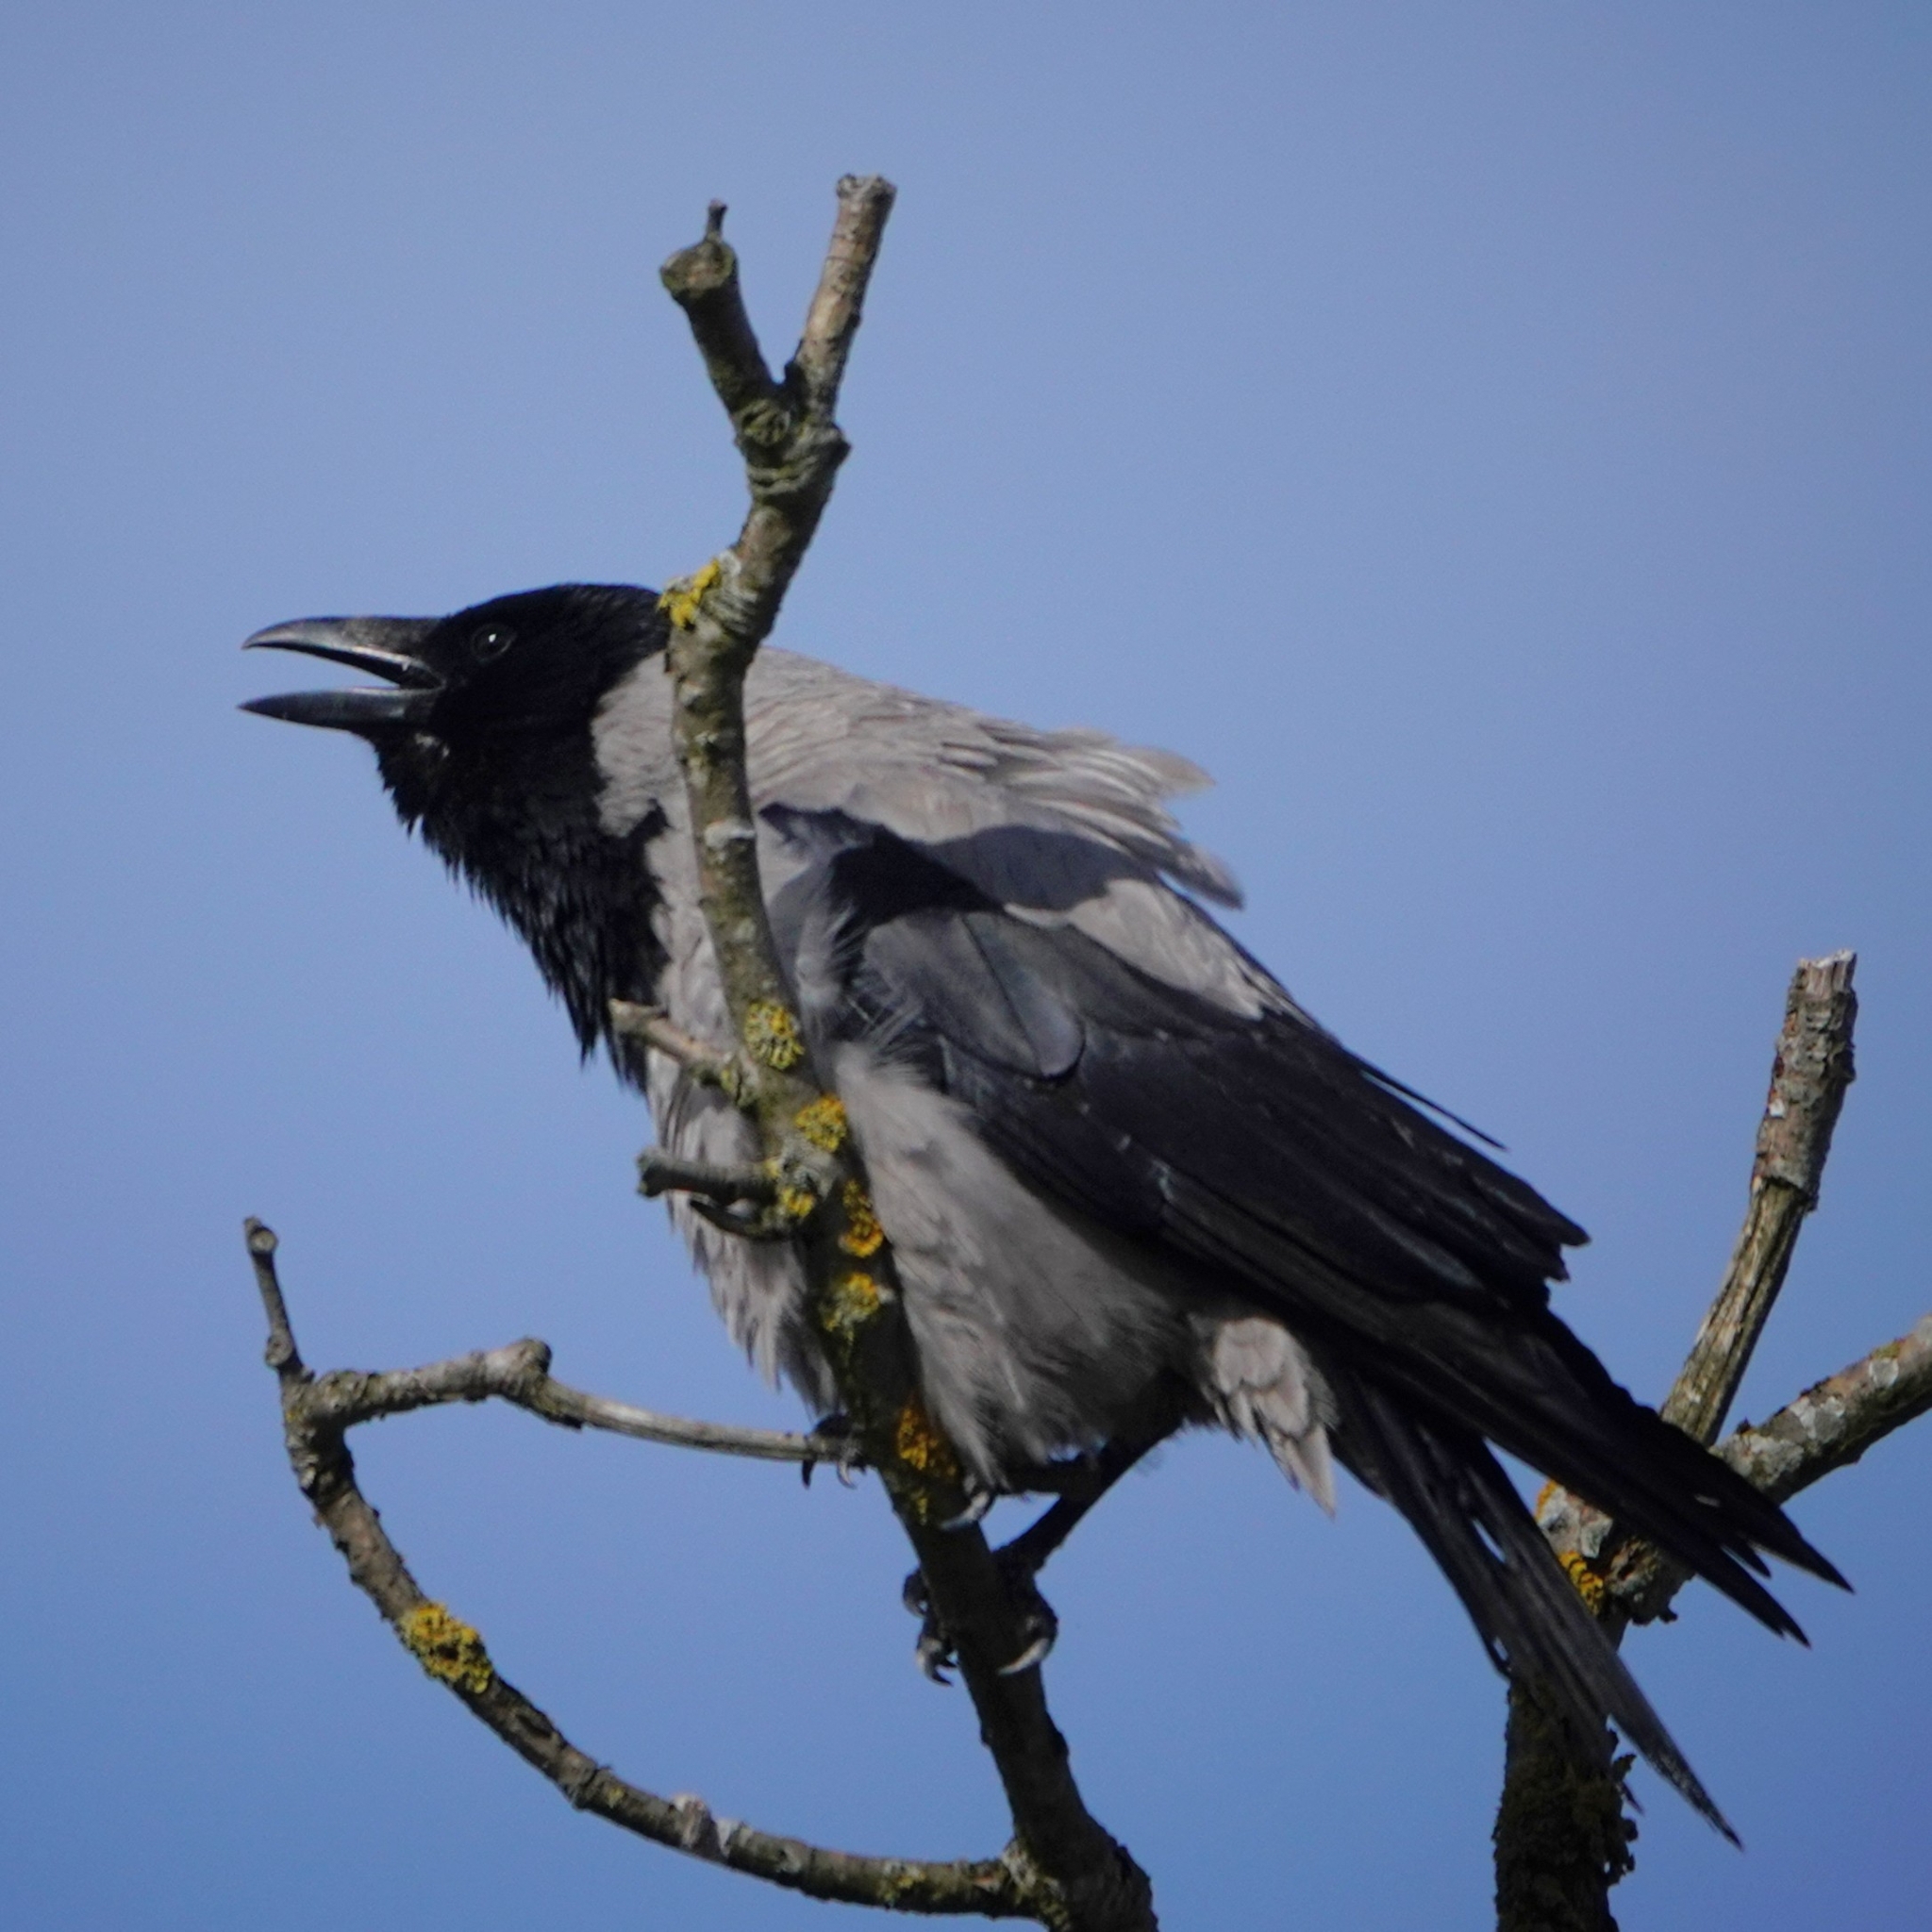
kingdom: Animalia
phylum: Chordata
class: Aves
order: Passeriformes
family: Corvidae
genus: Corvus
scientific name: Corvus cornix
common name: Hooded crow
